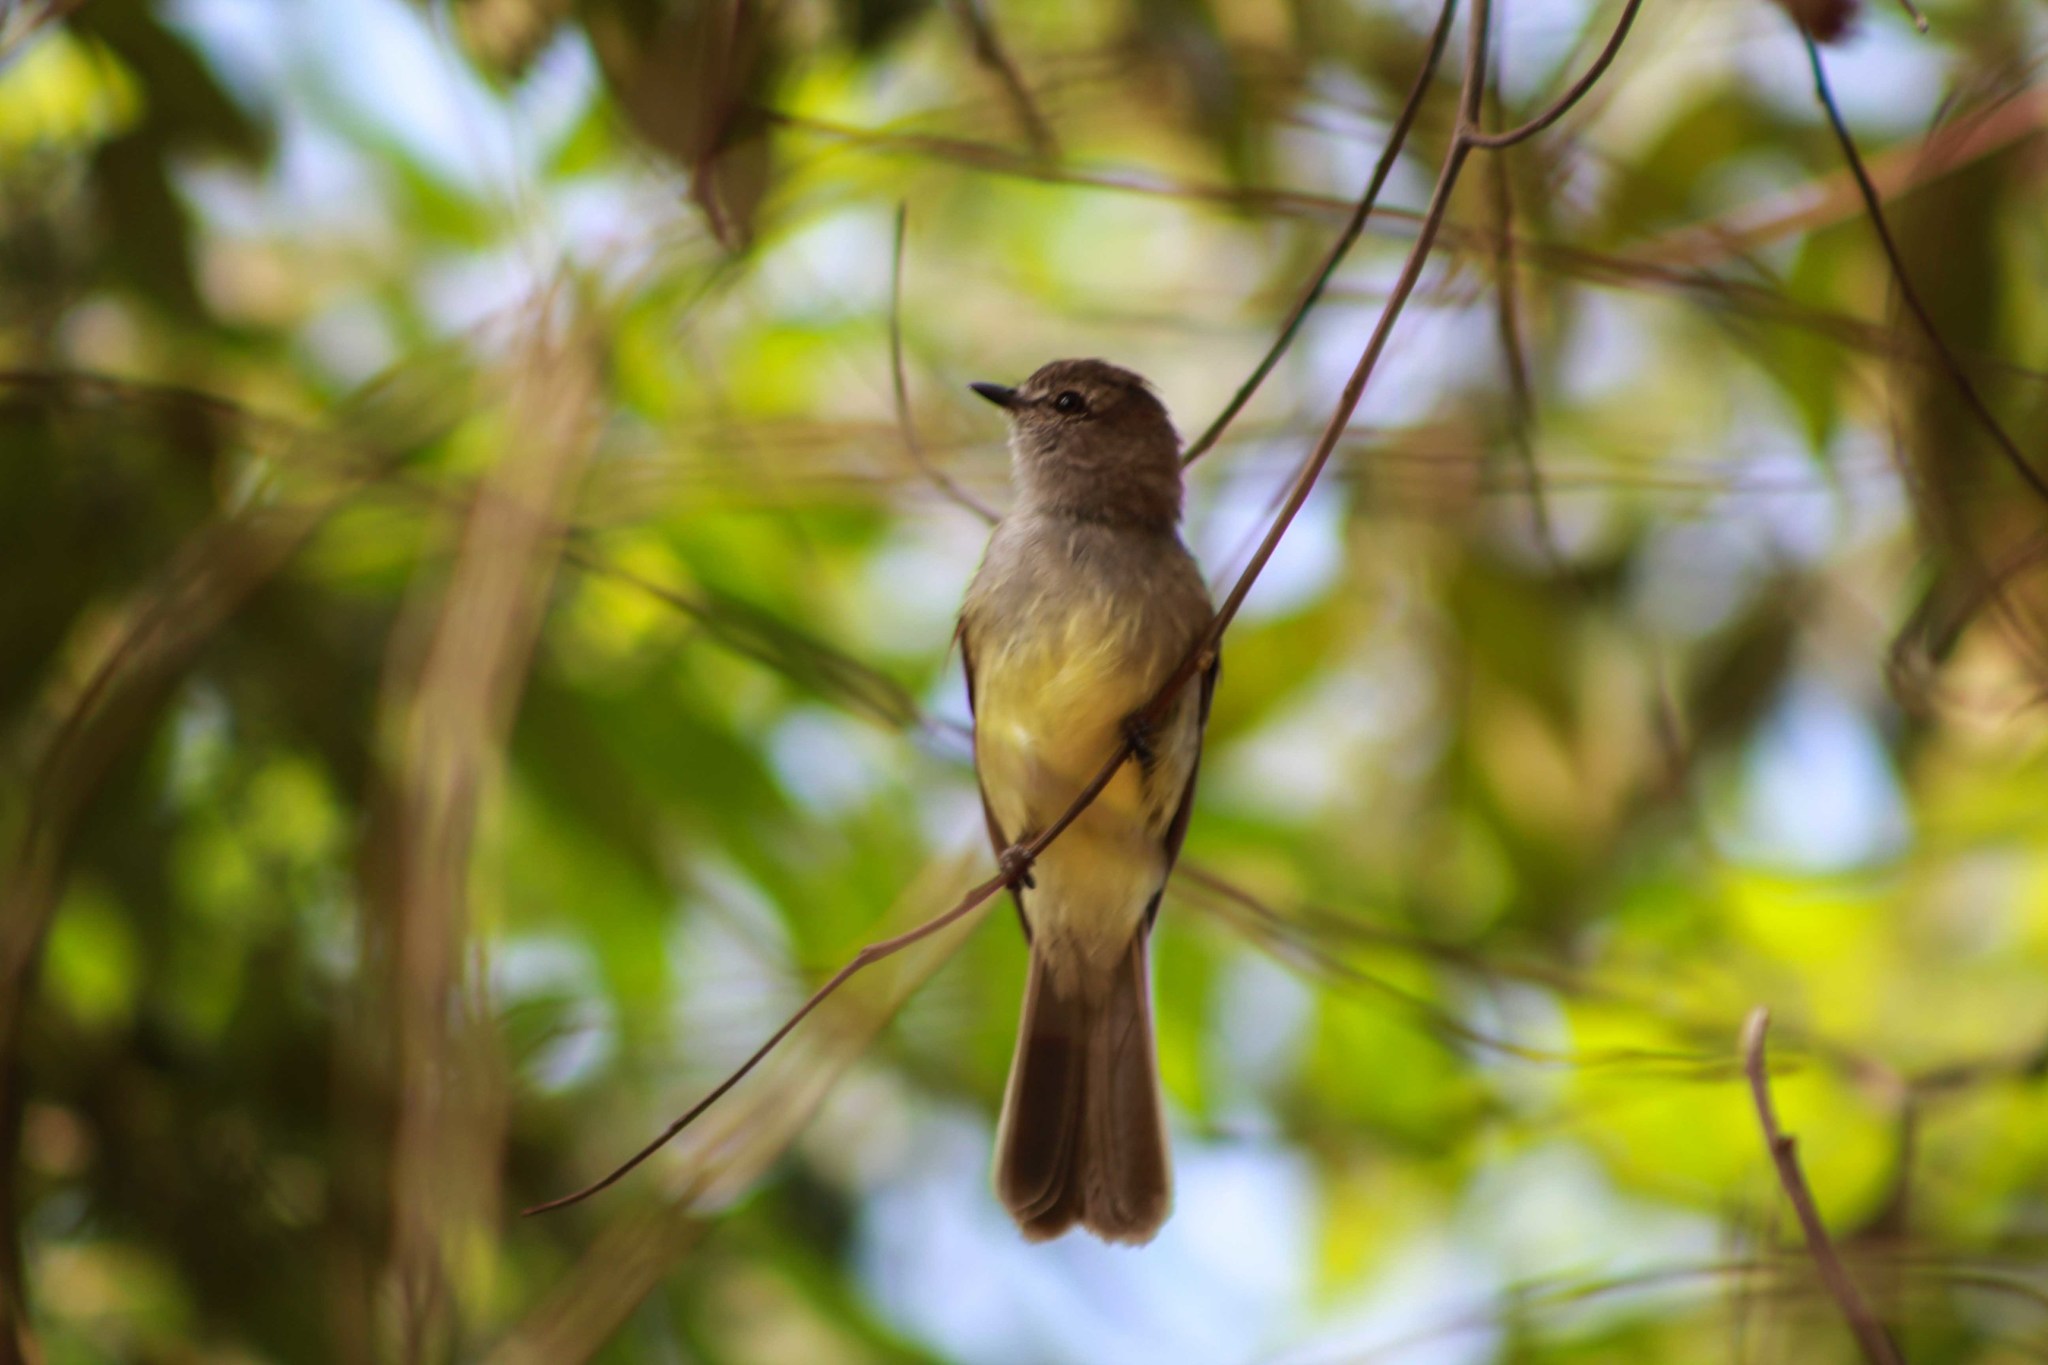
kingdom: Animalia
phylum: Chordata
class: Aves
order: Passeriformes
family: Tyrannidae
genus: Sublegatus
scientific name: Sublegatus arenarum
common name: Northern scrub-flycatcher
